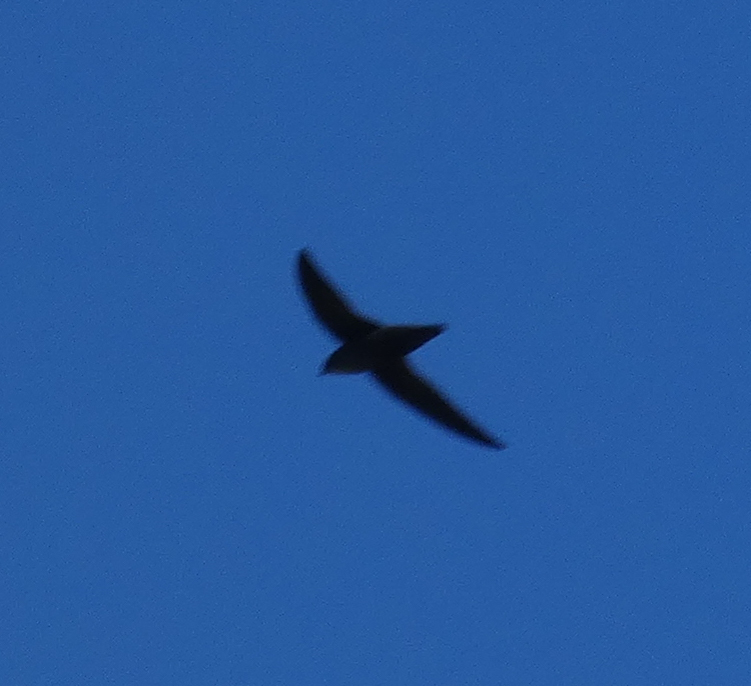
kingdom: Animalia
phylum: Chordata
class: Aves
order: Apodiformes
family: Apodidae
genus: Chaetura
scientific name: Chaetura pelagica
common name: Chimney swift
